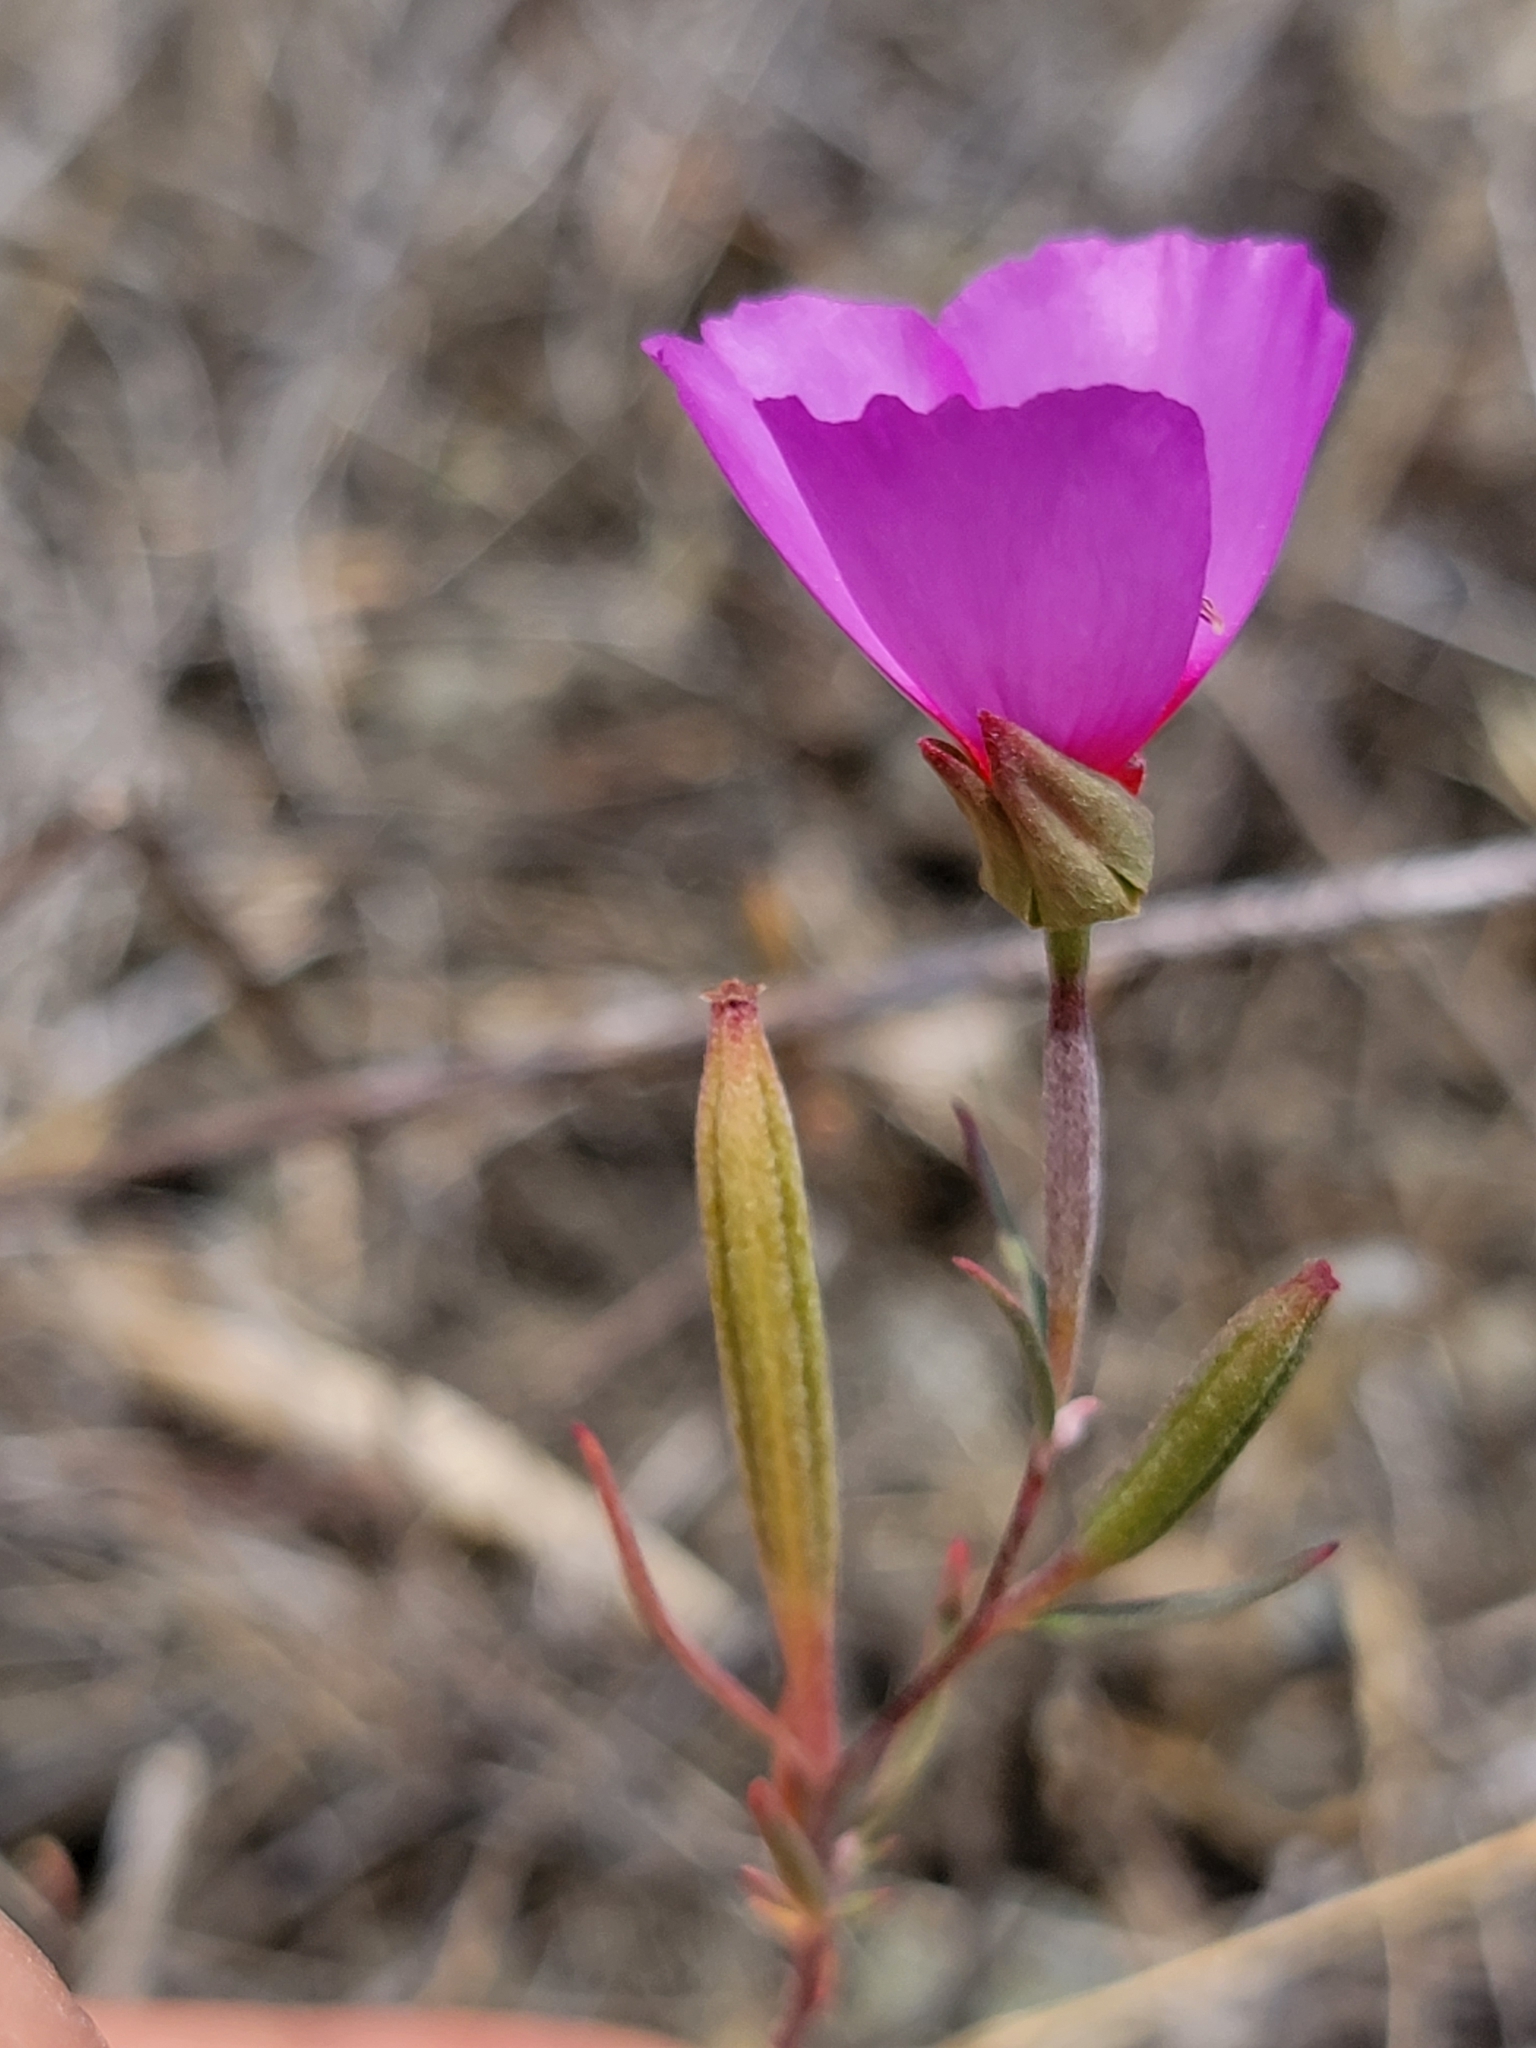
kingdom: Plantae
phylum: Tracheophyta
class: Magnoliopsida
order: Myrtales
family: Onagraceae
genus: Clarkia
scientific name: Clarkia rubicunda
